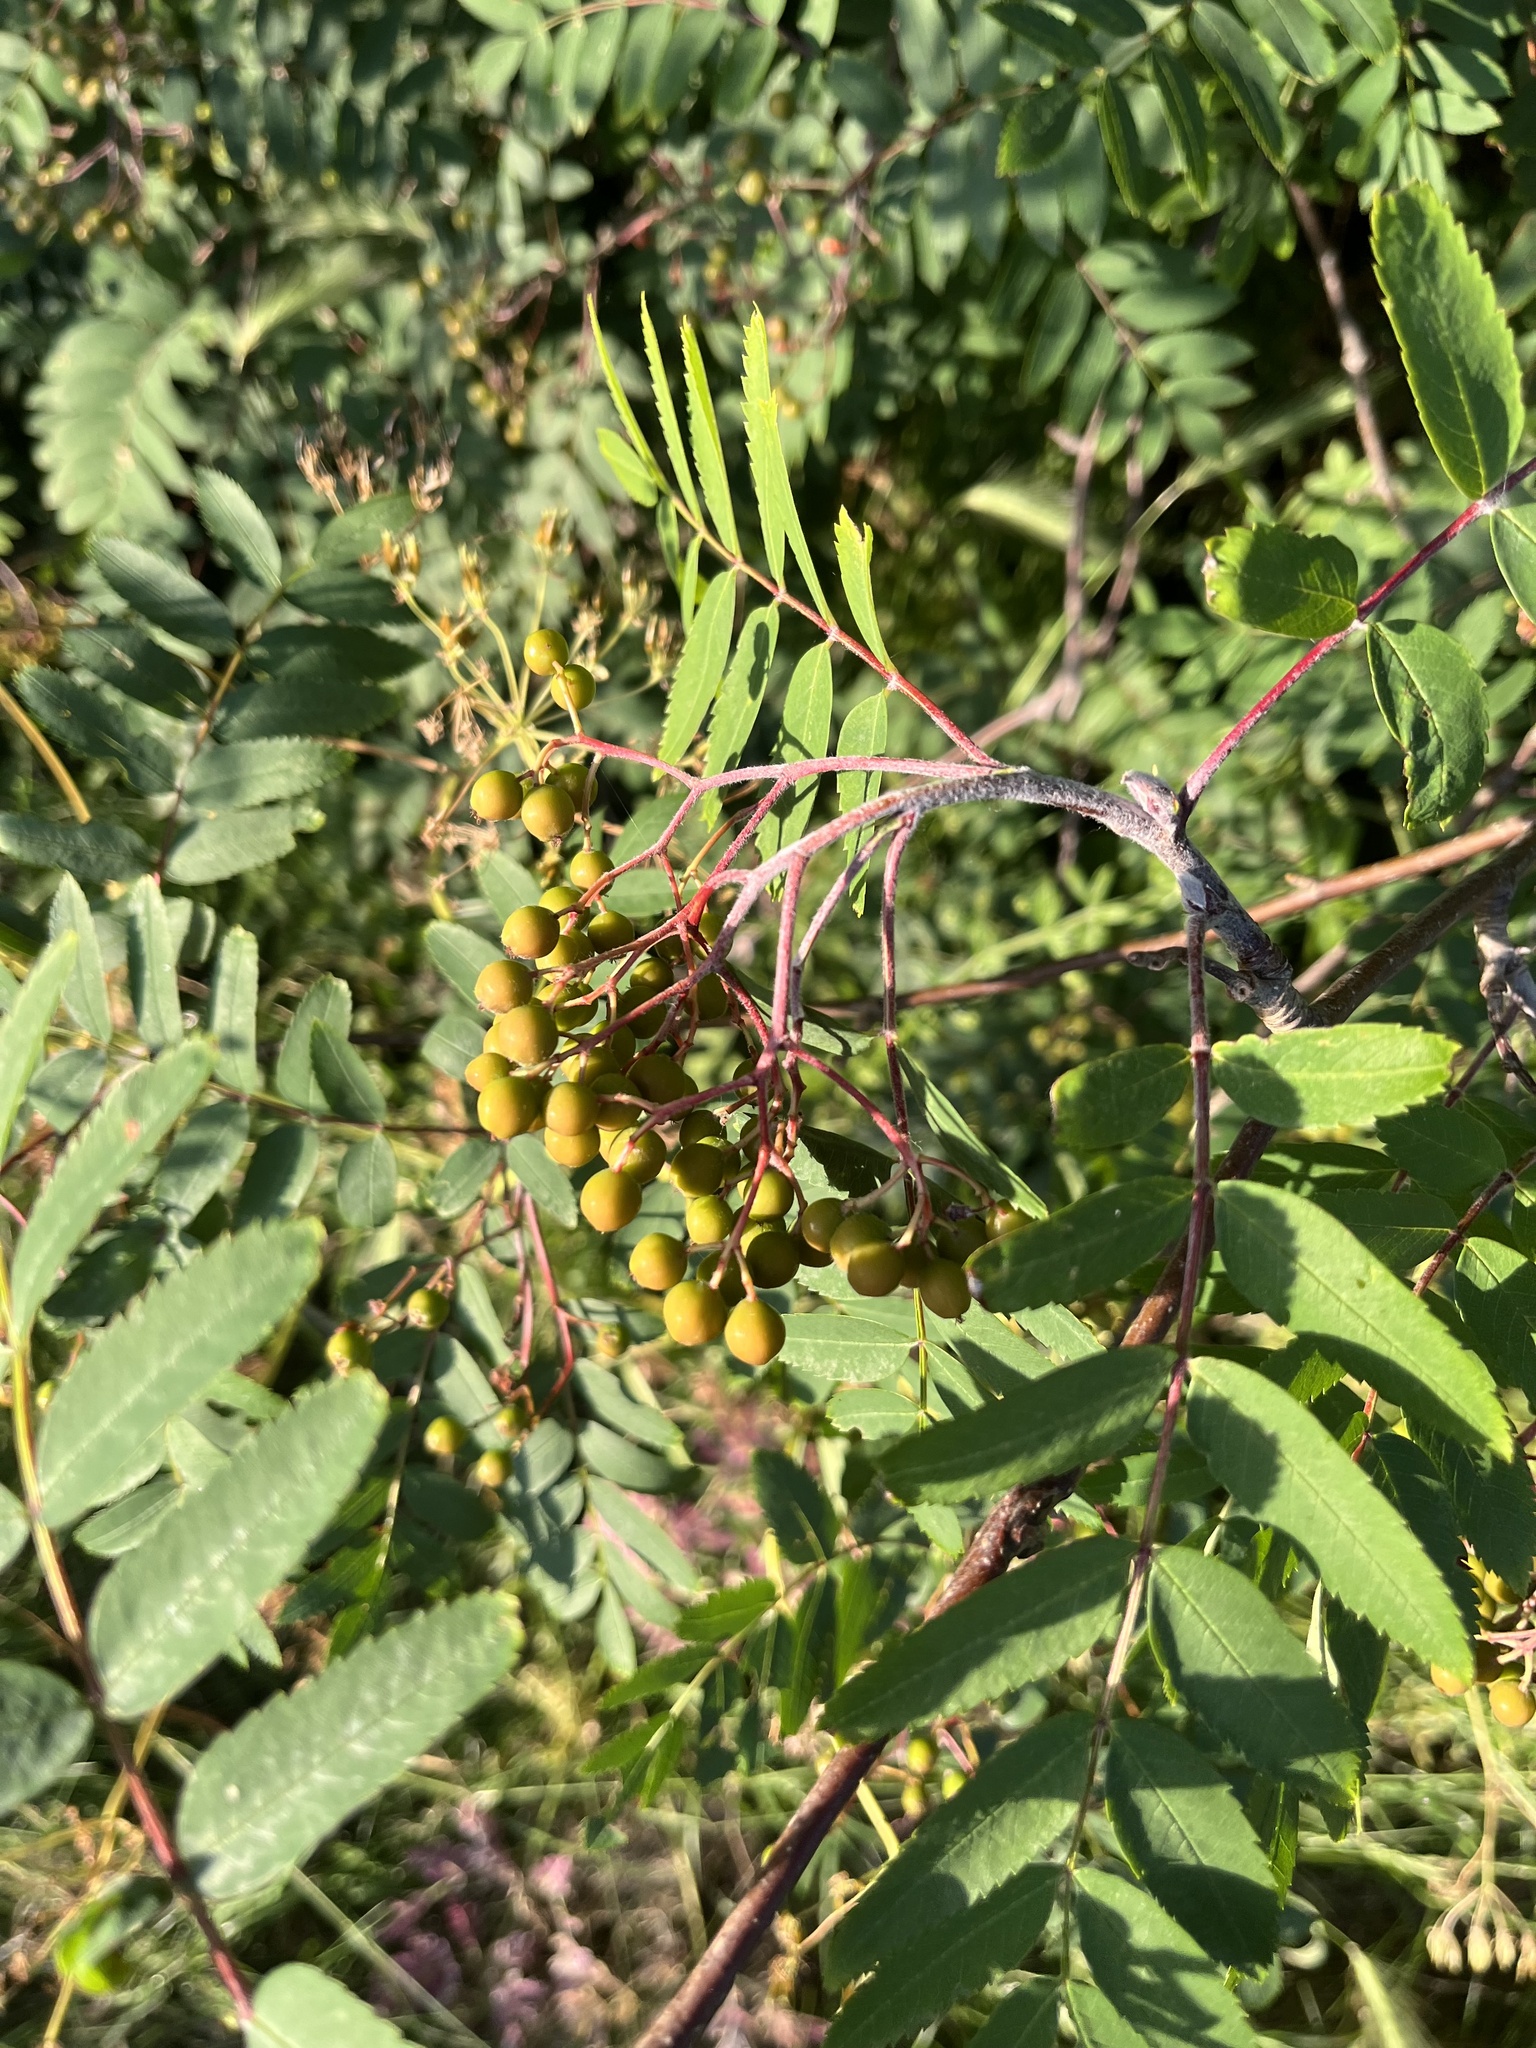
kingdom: Plantae
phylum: Tracheophyta
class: Magnoliopsida
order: Rosales
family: Rosaceae
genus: Sorbus
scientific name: Sorbus aucuparia
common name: Rowan
